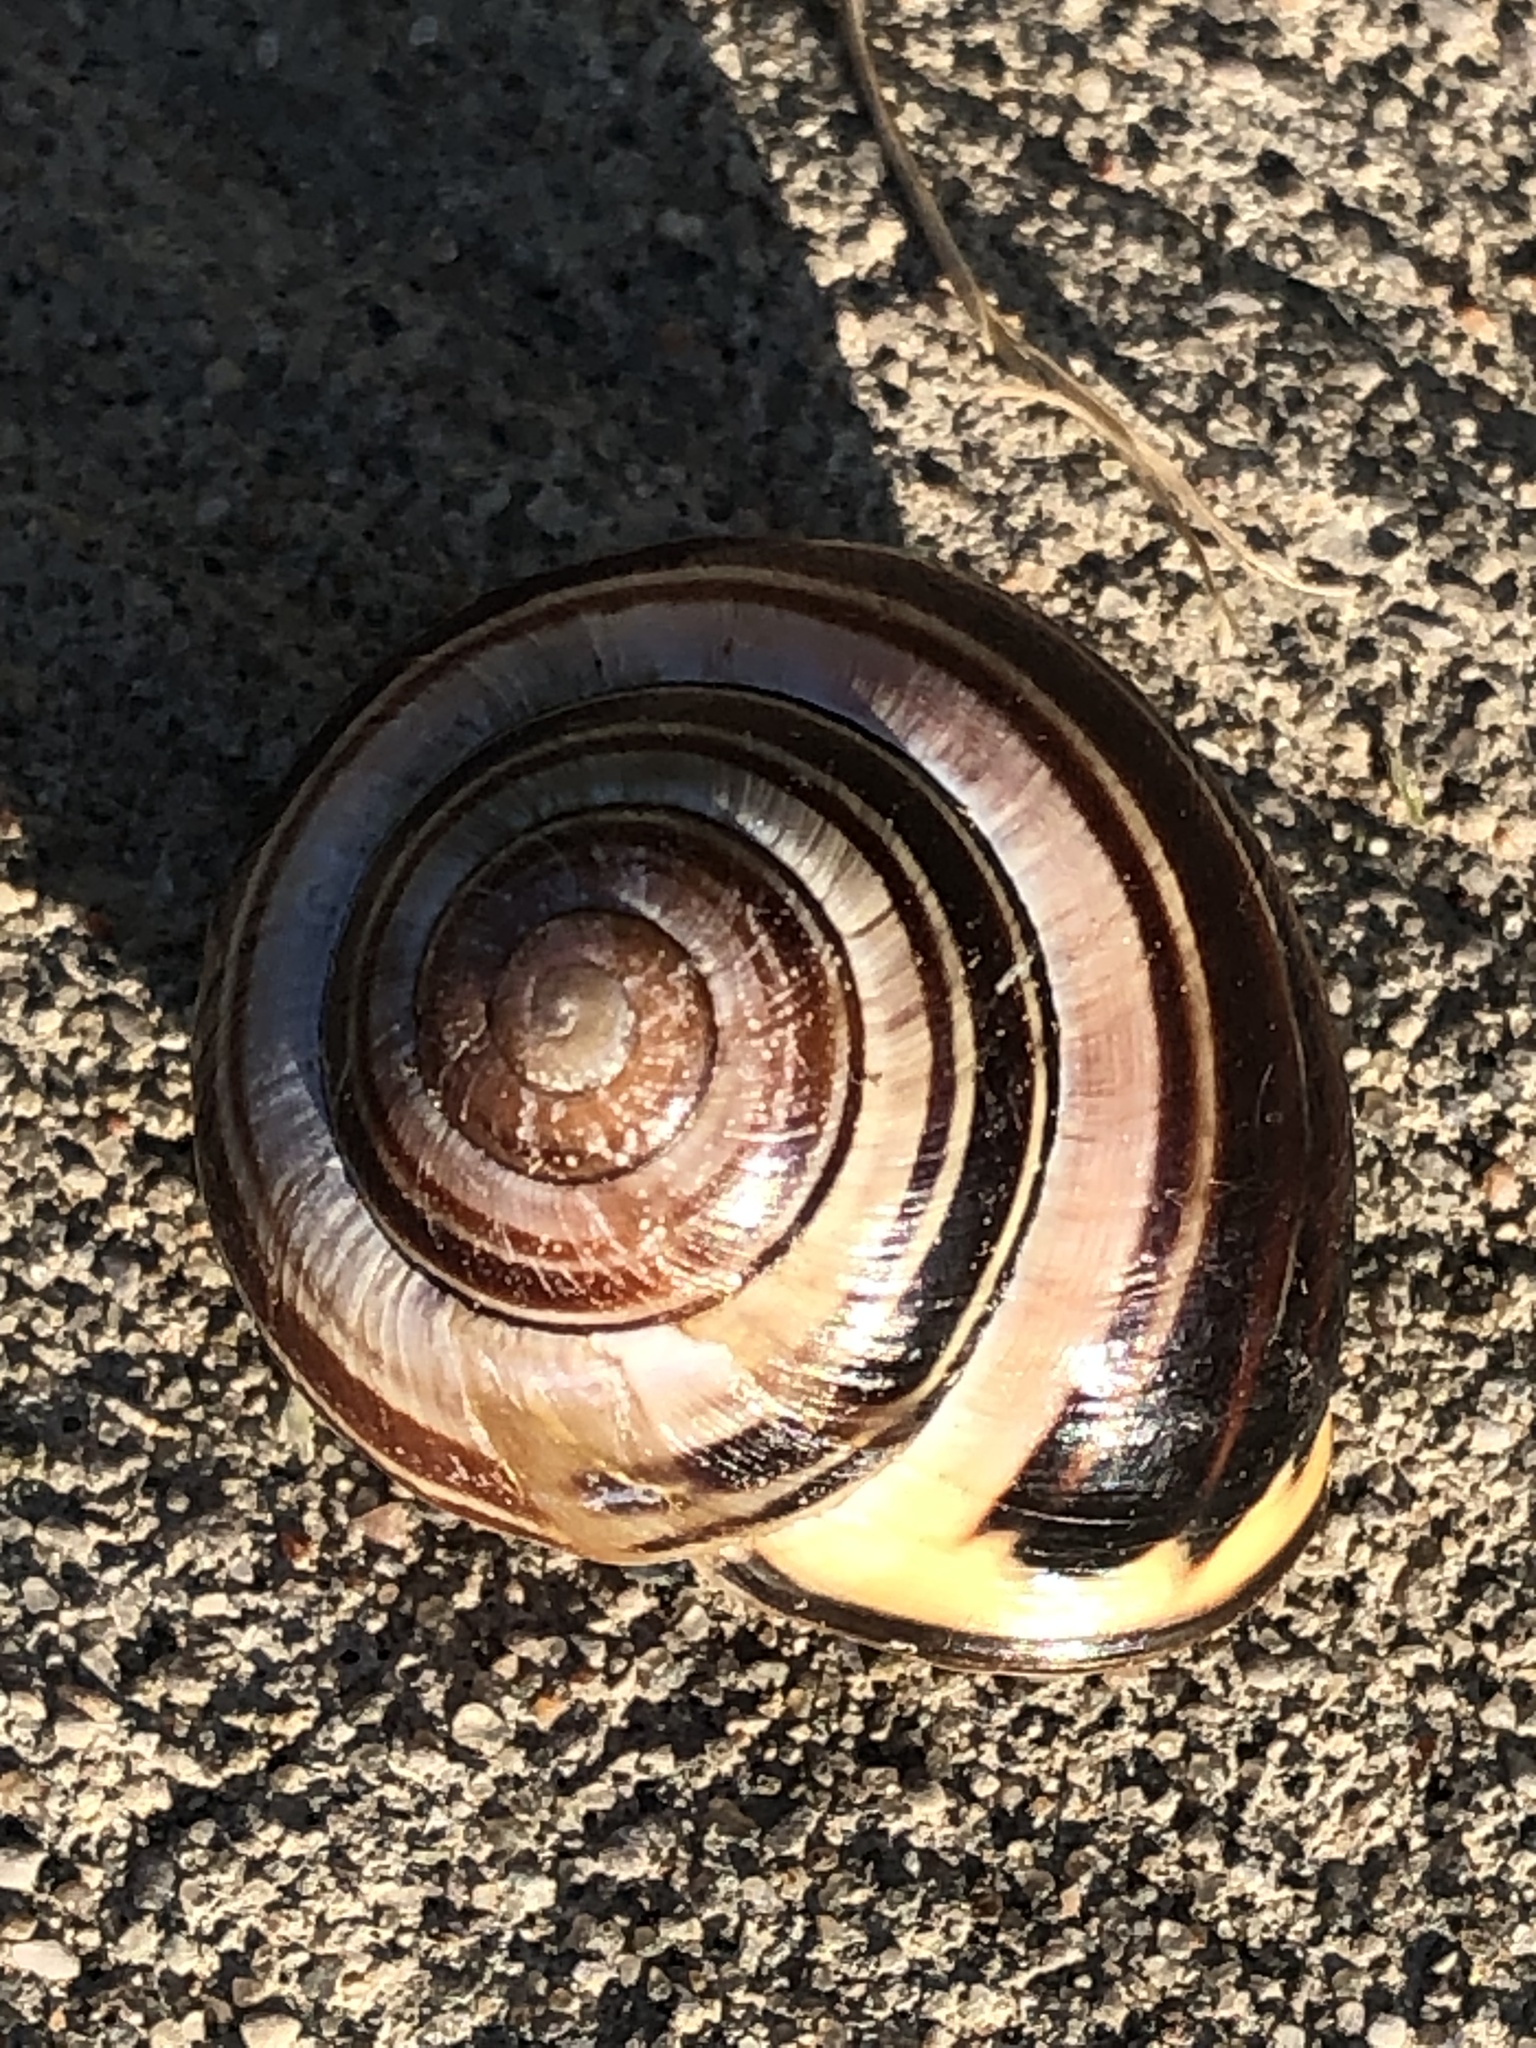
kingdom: Animalia
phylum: Mollusca
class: Gastropoda
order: Stylommatophora
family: Helicidae
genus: Cepaea
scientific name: Cepaea nemoralis
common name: Grovesnail
